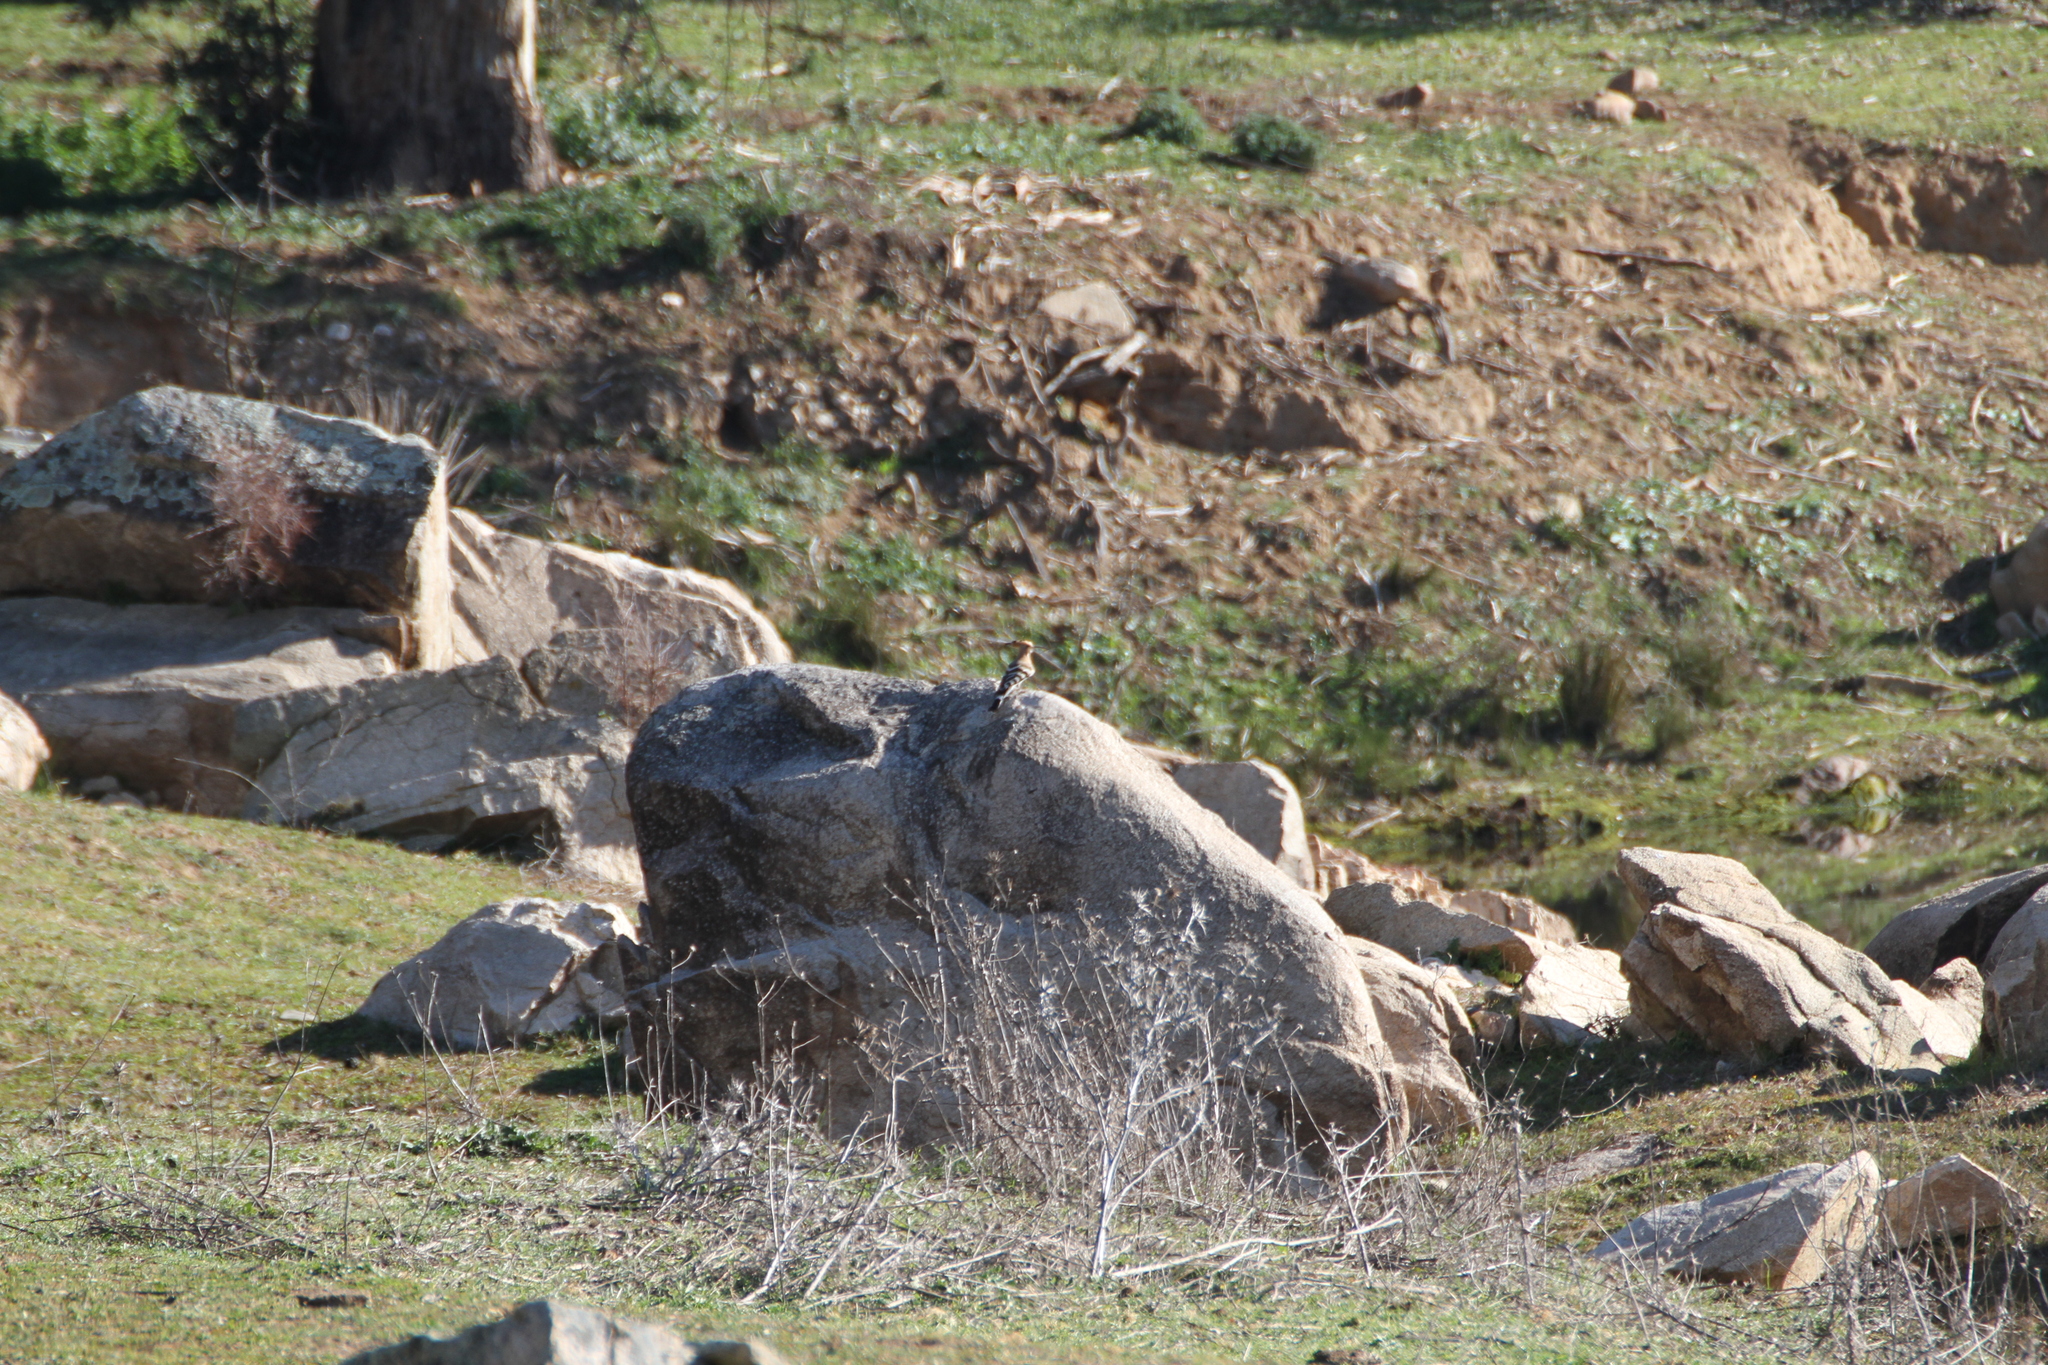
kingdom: Animalia
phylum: Chordata
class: Aves
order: Bucerotiformes
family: Upupidae
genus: Upupa
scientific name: Upupa epops
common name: Eurasian hoopoe
